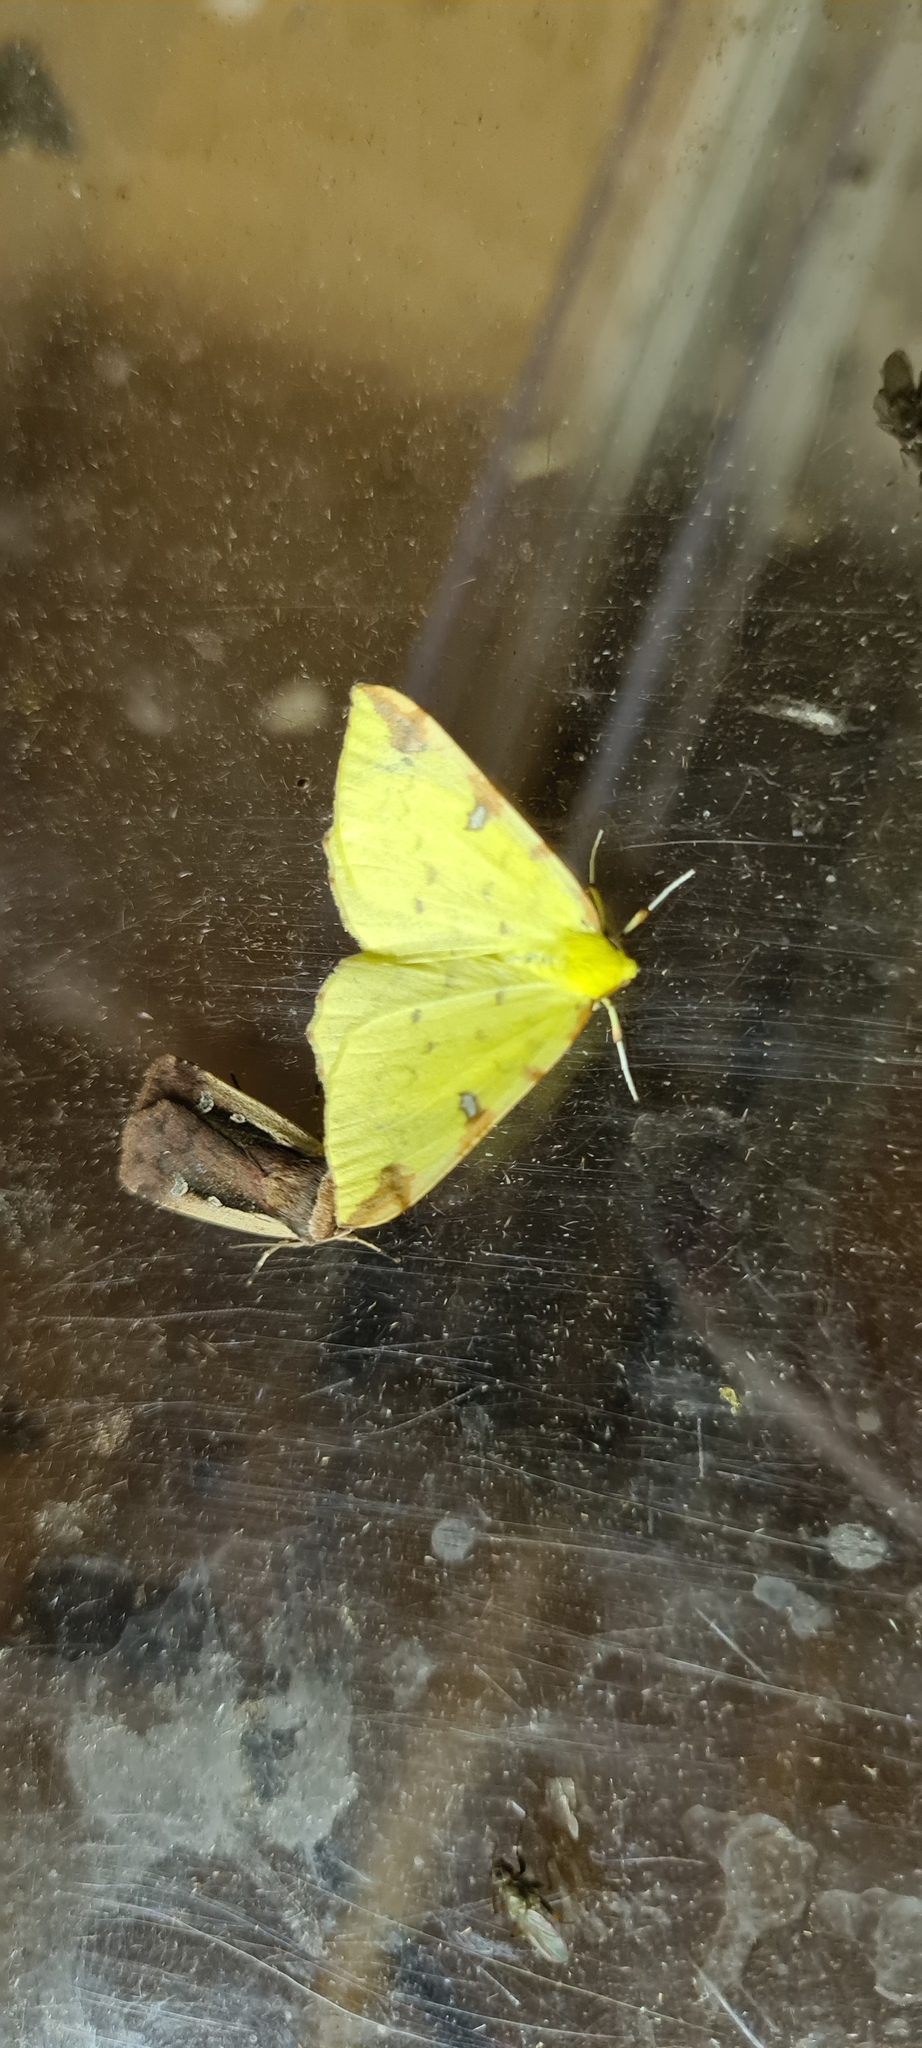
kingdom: Animalia
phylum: Arthropoda
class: Insecta
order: Lepidoptera
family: Geometridae
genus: Opisthograptis
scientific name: Opisthograptis luteolata
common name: Brimstone moth
